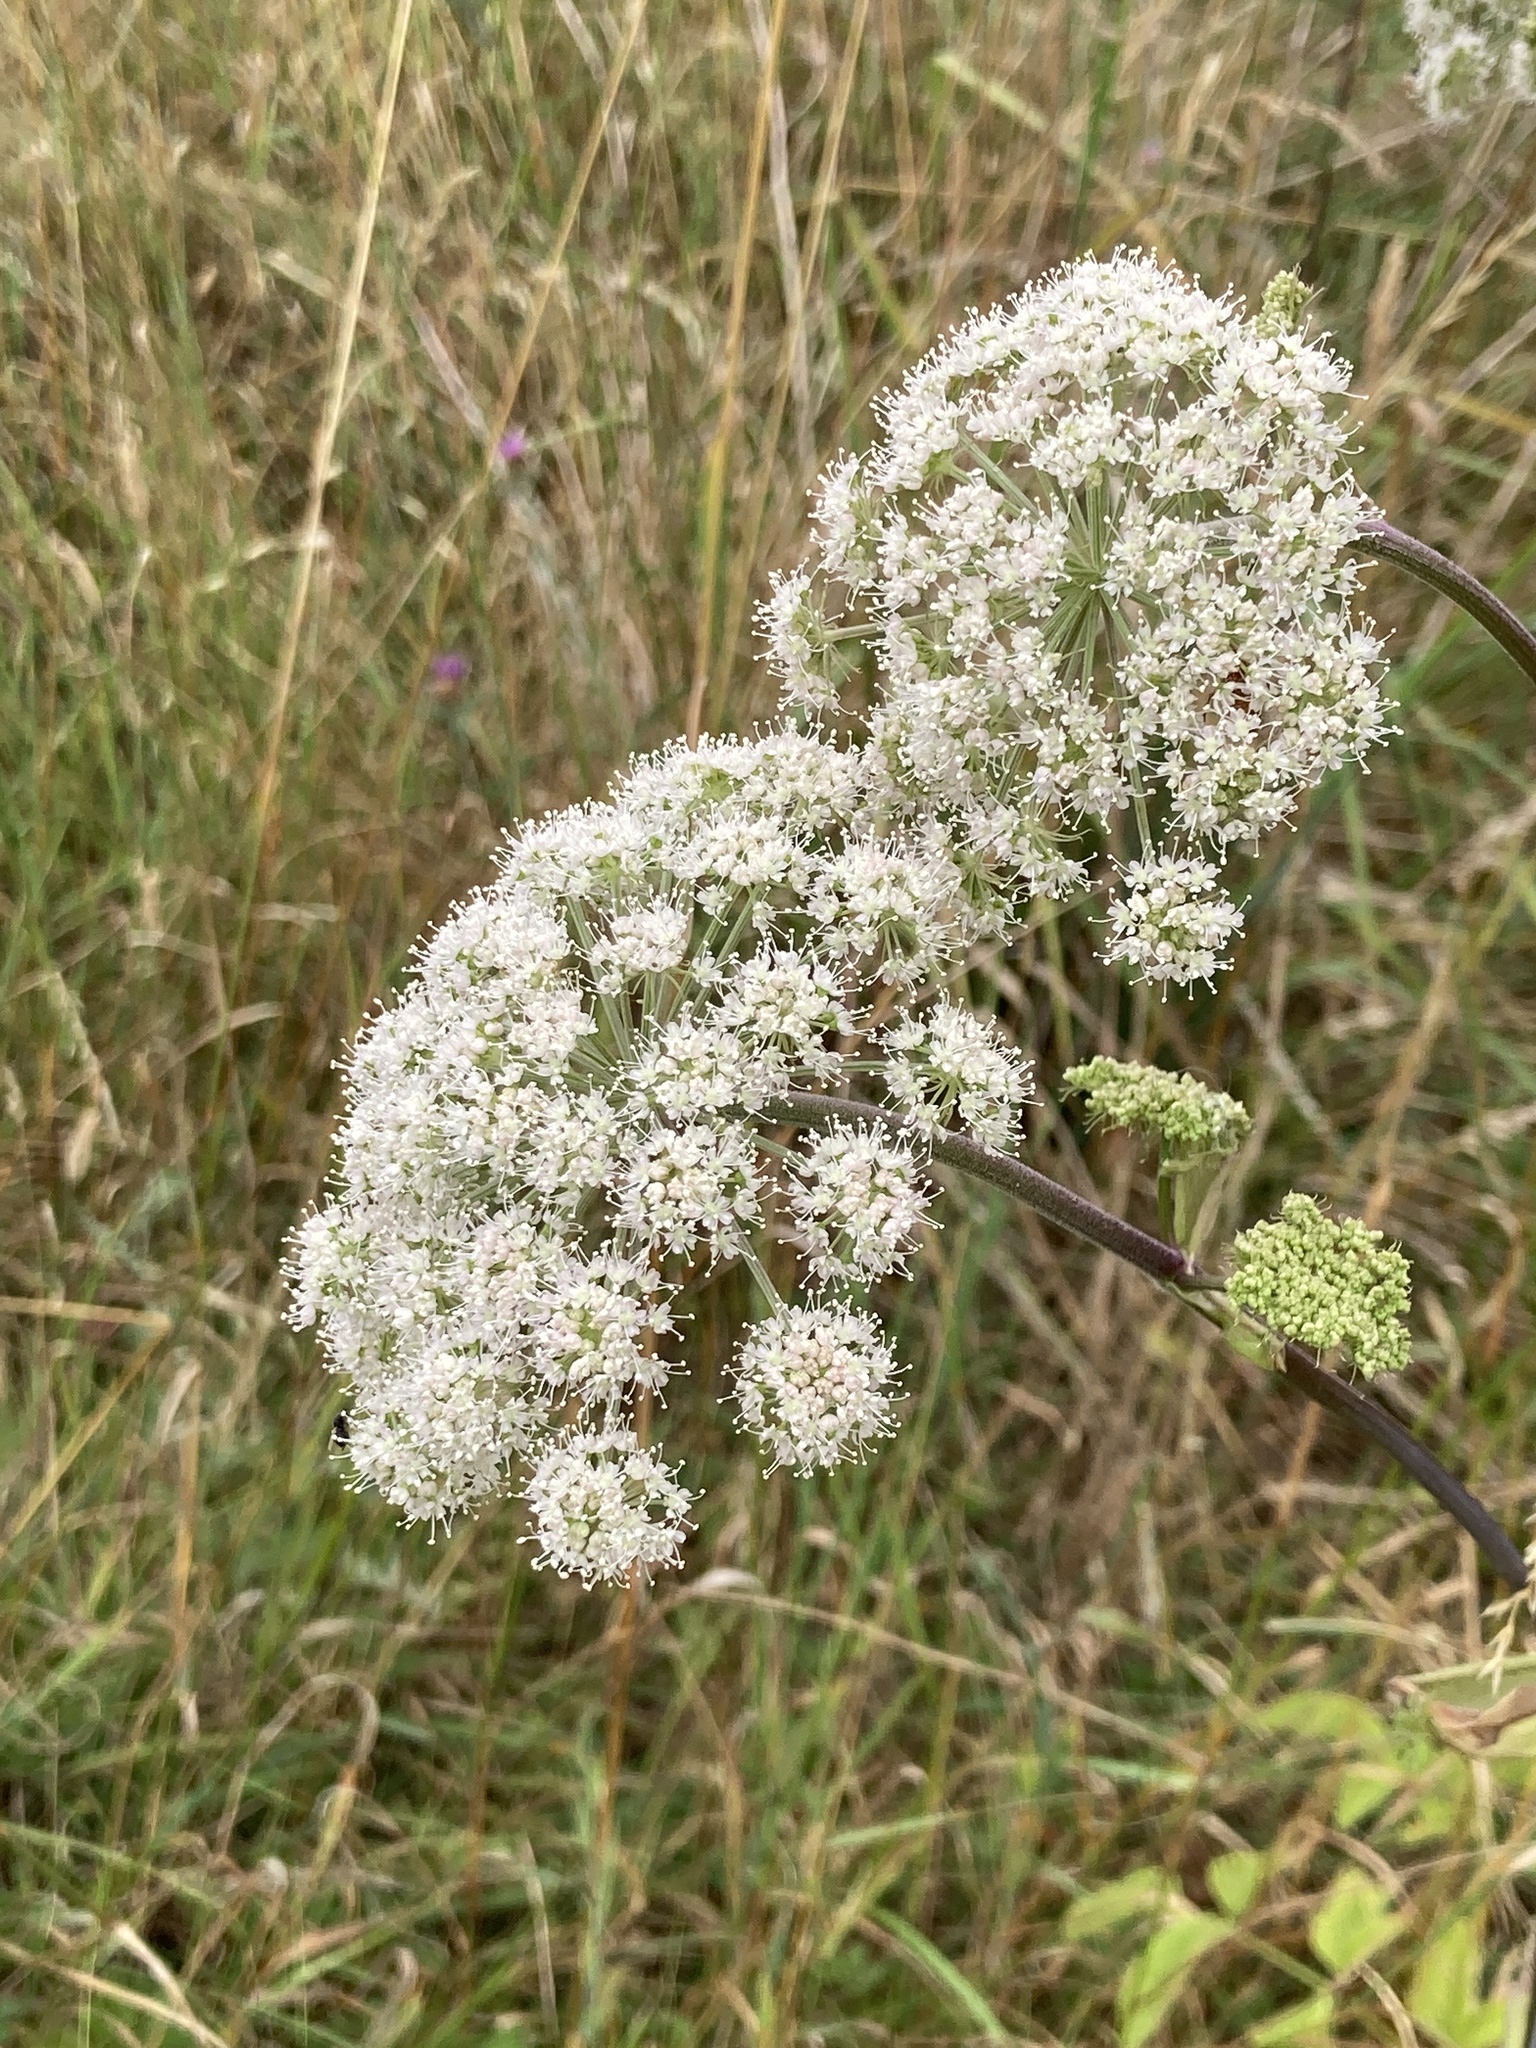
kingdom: Plantae
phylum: Tracheophyta
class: Magnoliopsida
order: Apiales
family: Apiaceae
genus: Angelica
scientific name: Angelica sylvestris
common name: Wild angelica
